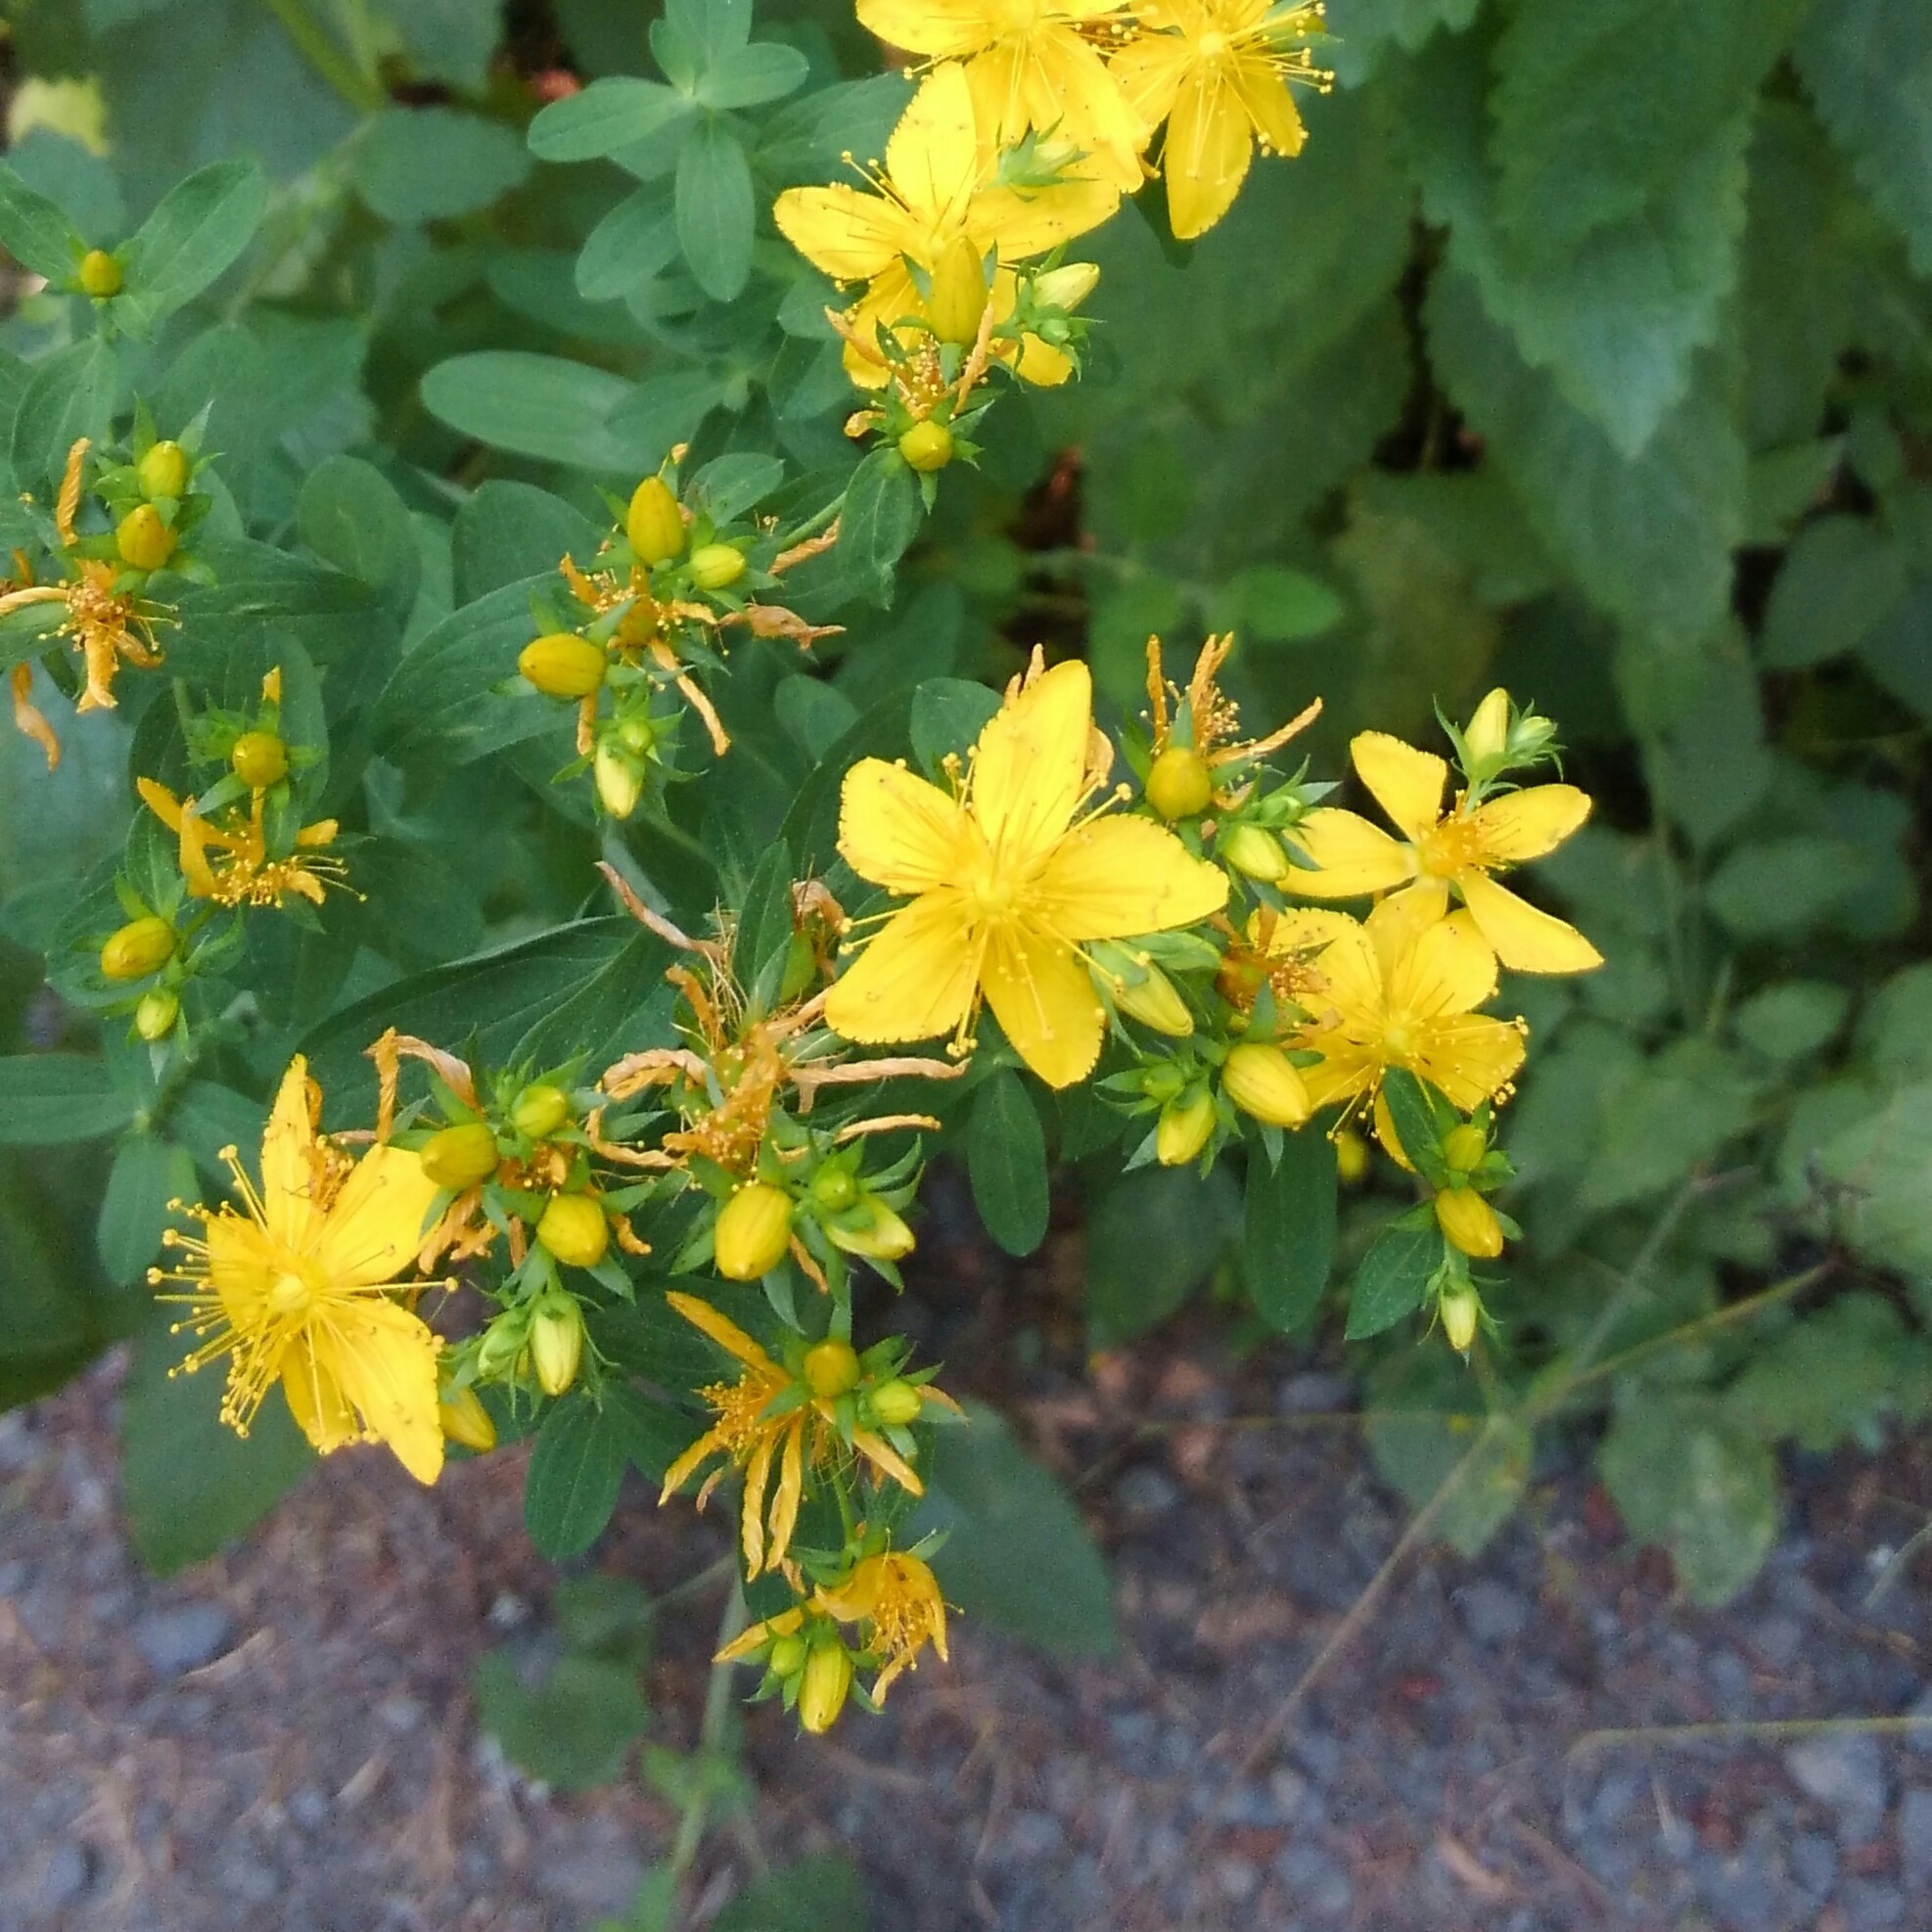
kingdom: Plantae
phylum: Tracheophyta
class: Magnoliopsida
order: Malpighiales
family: Hypericaceae
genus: Hypericum
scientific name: Hypericum perforatum
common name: Common st. johnswort
